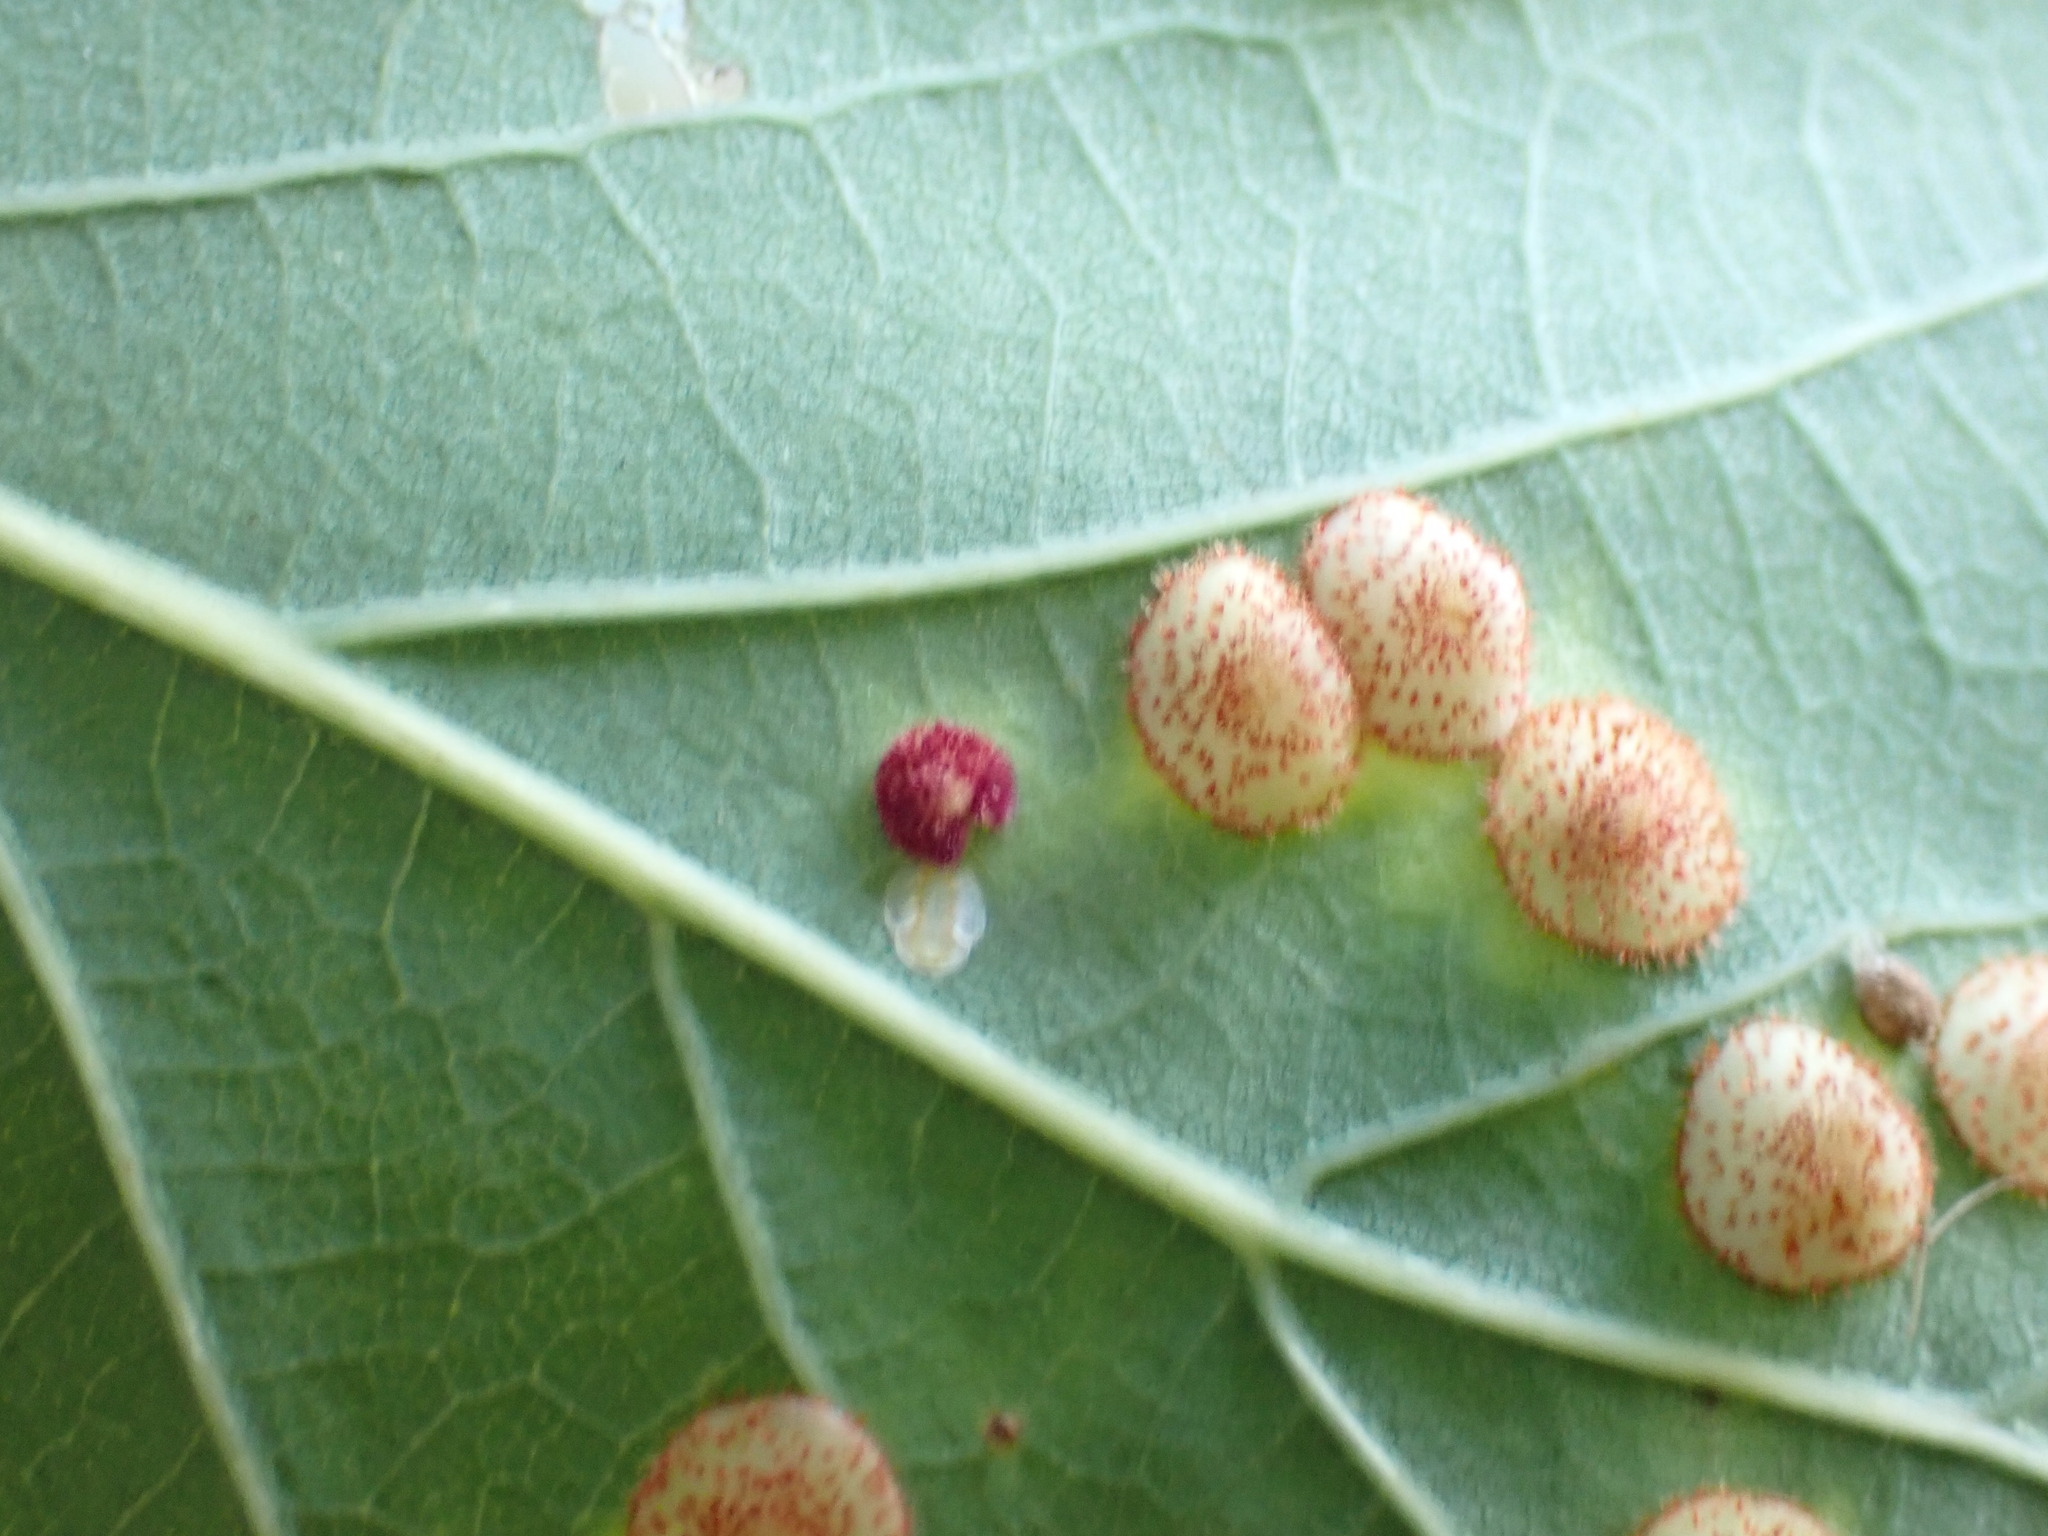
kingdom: Animalia
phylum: Arthropoda
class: Insecta
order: Hymenoptera
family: Cynipidae
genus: Neuroterus
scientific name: Neuroterus quercusbaccarum
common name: Common spangle gall
